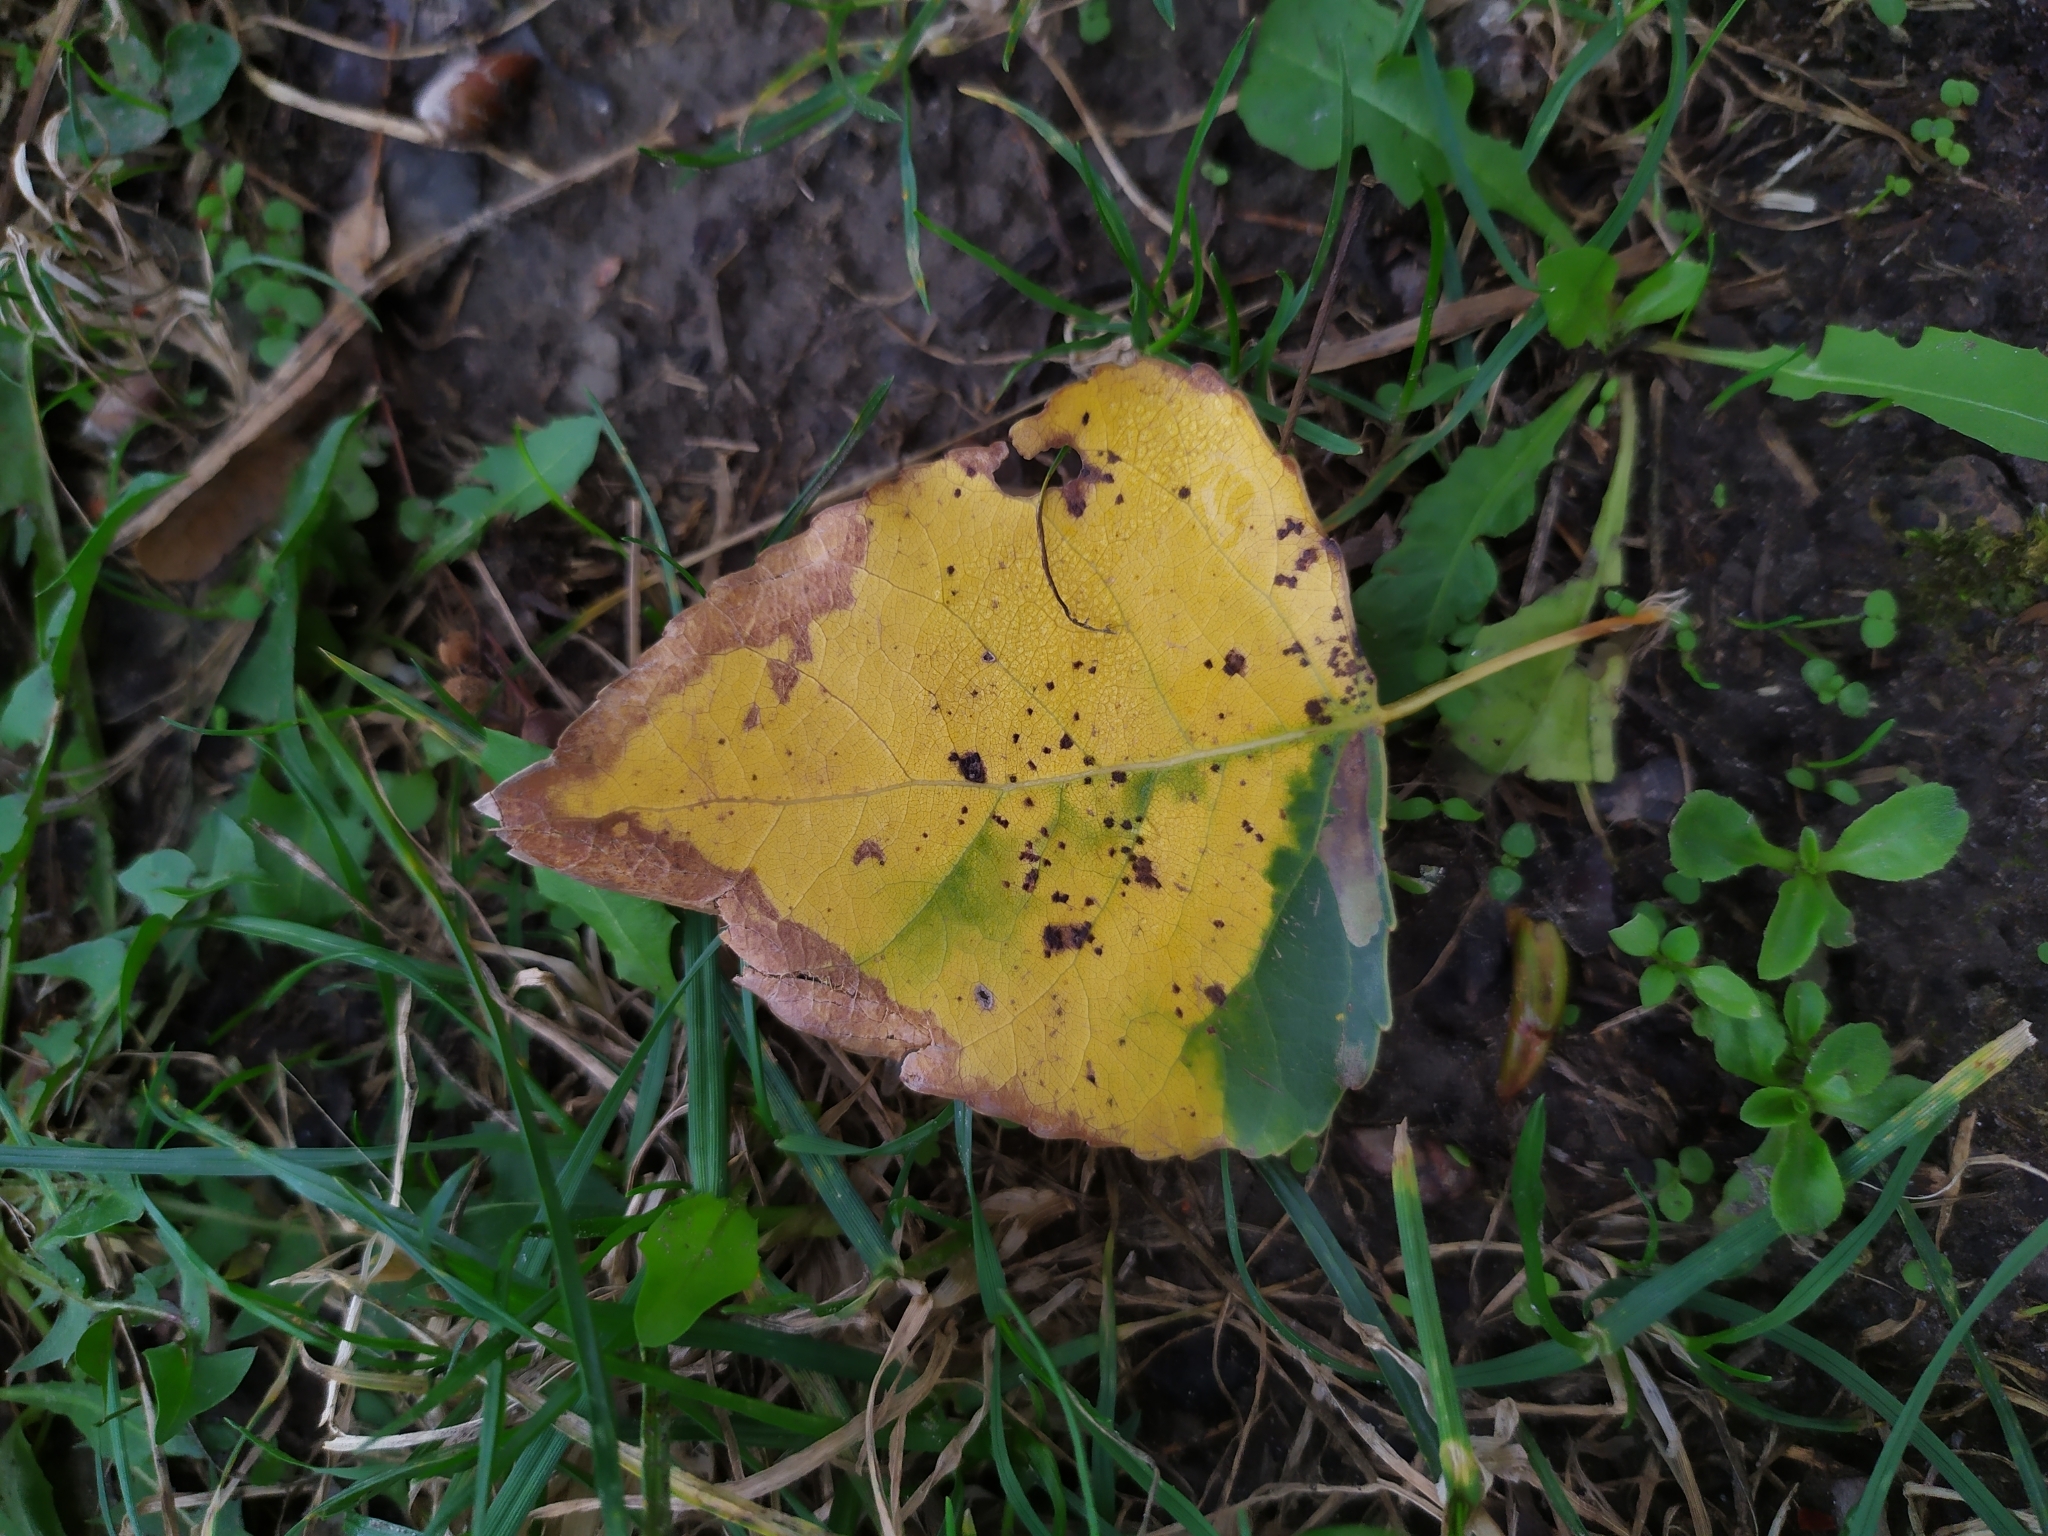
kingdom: Animalia
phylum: Arthropoda
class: Insecta
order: Lepidoptera
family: Nepticulidae
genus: Ectoedemia
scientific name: Ectoedemia hannoverella
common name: New poplar pigmy
